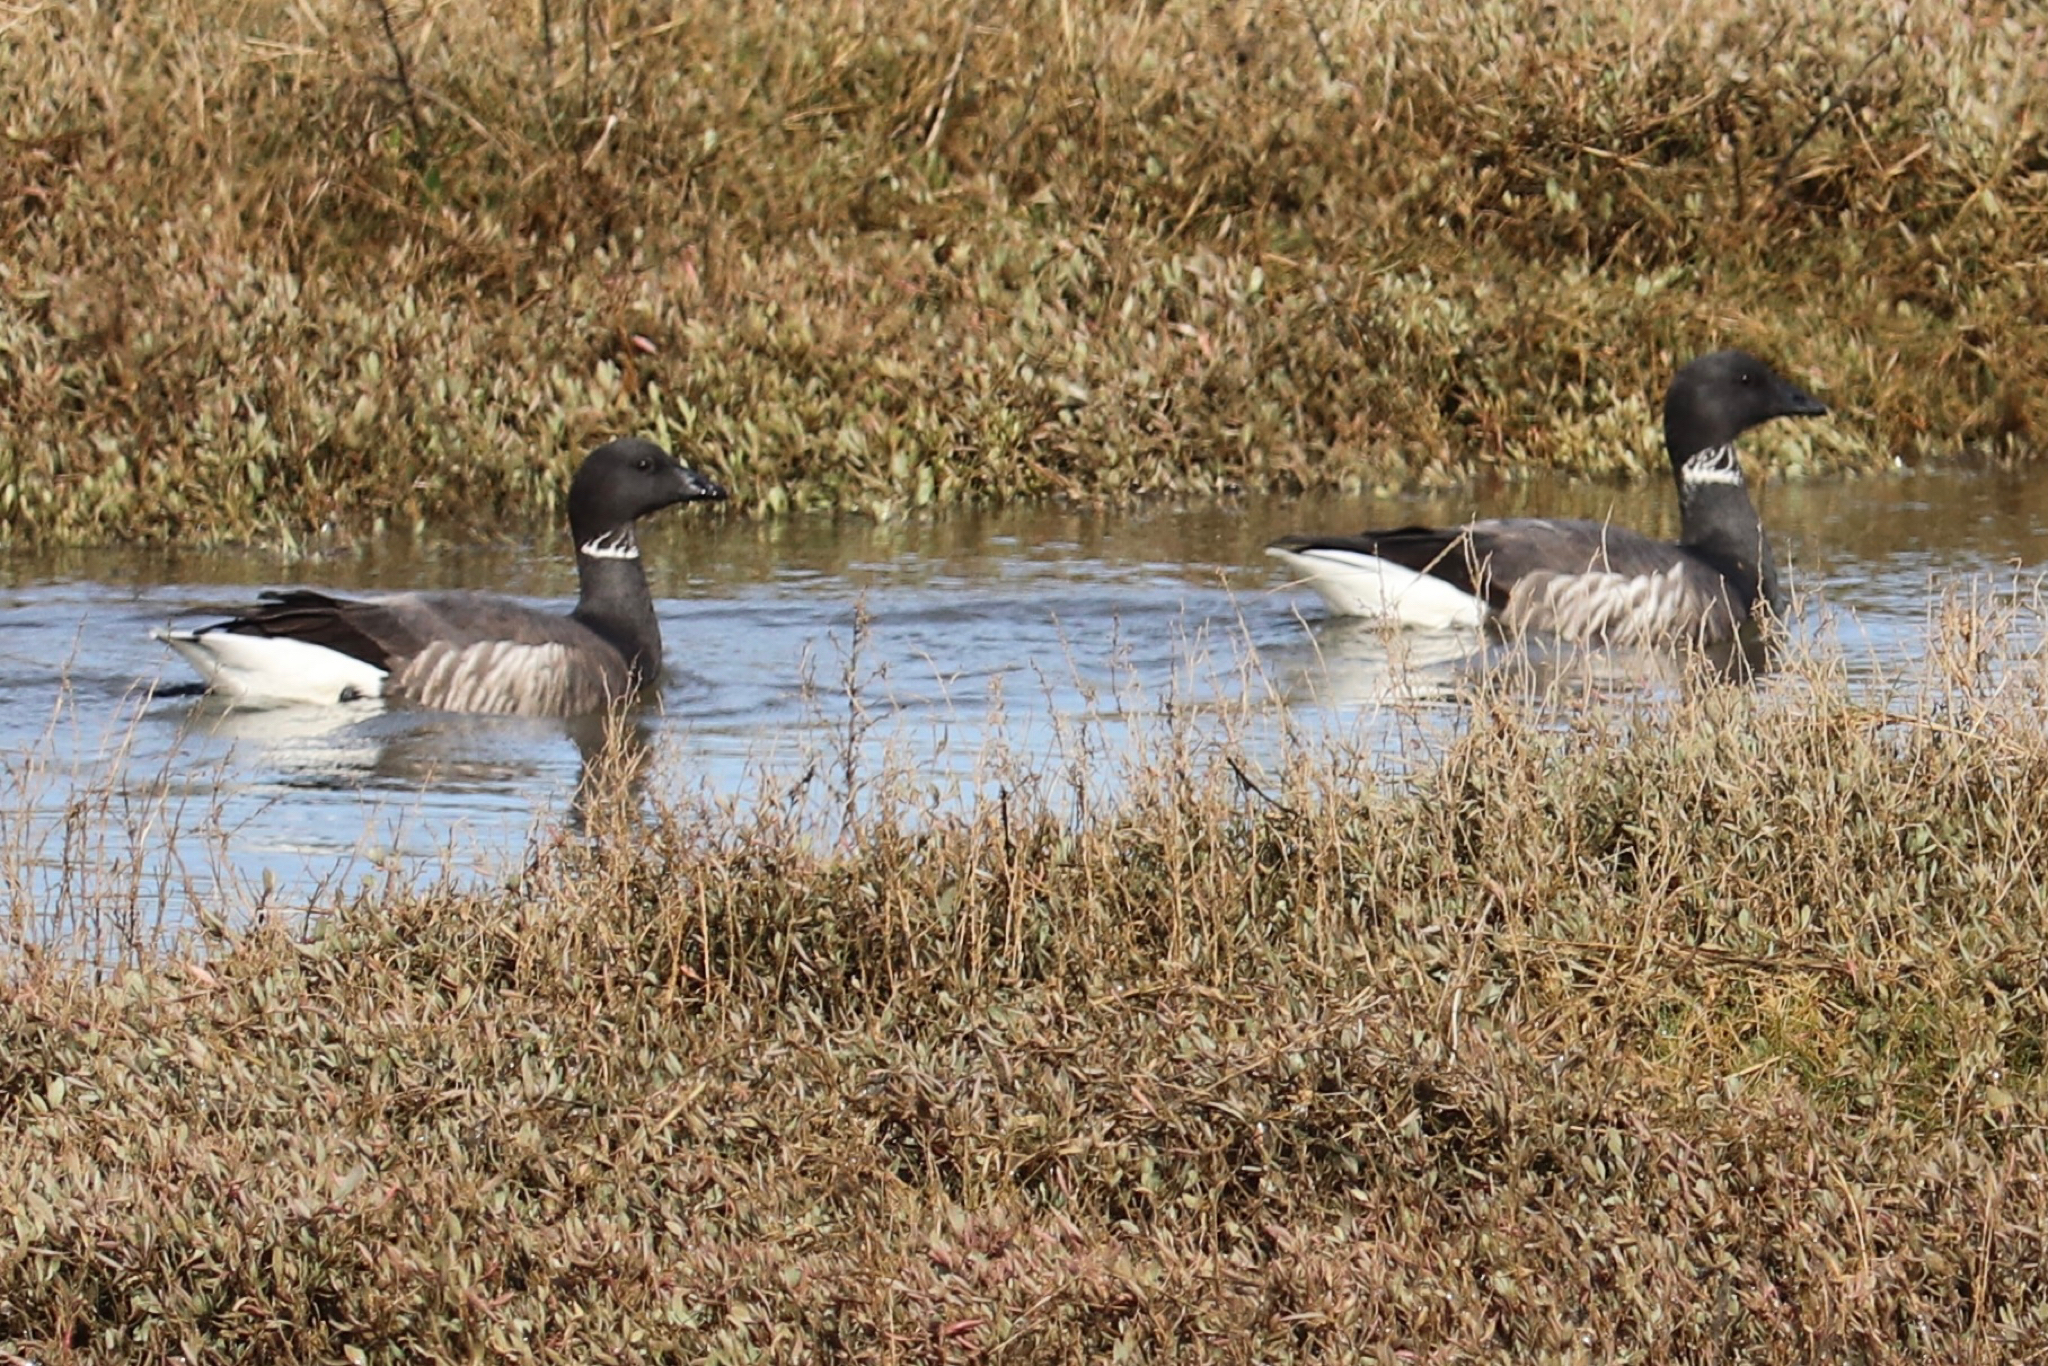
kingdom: Animalia
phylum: Chordata
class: Aves
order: Anseriformes
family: Anatidae
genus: Branta
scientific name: Branta bernicla
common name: Brant goose
